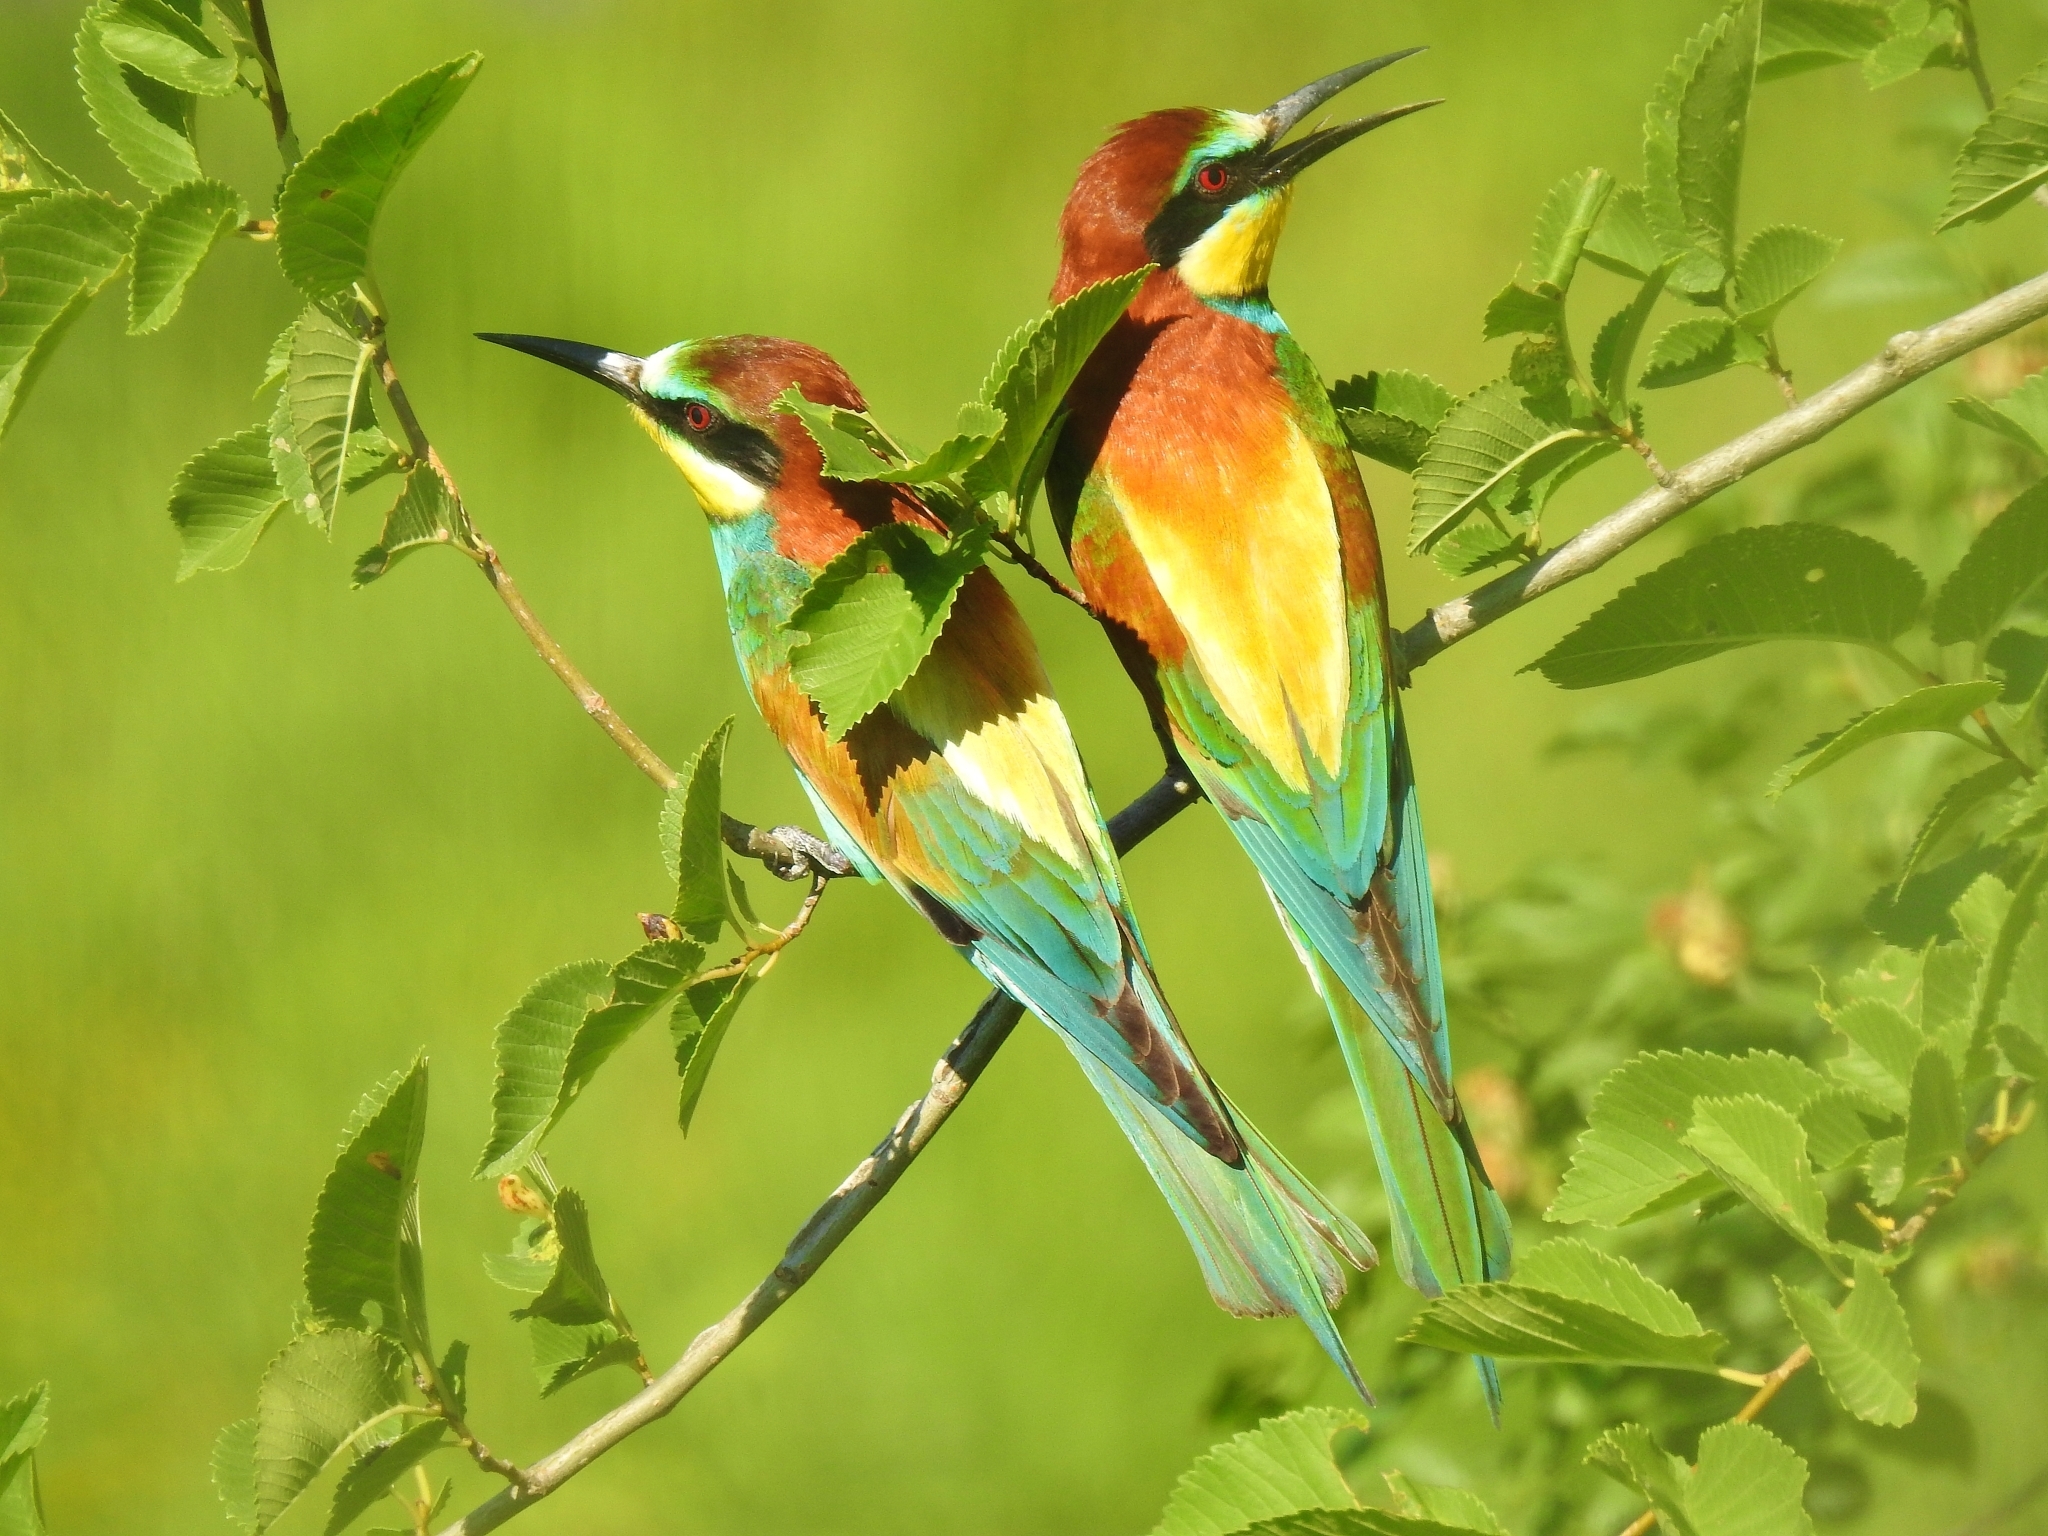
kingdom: Animalia
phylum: Chordata
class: Aves
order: Coraciiformes
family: Meropidae
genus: Merops
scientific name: Merops apiaster
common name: European bee-eater
